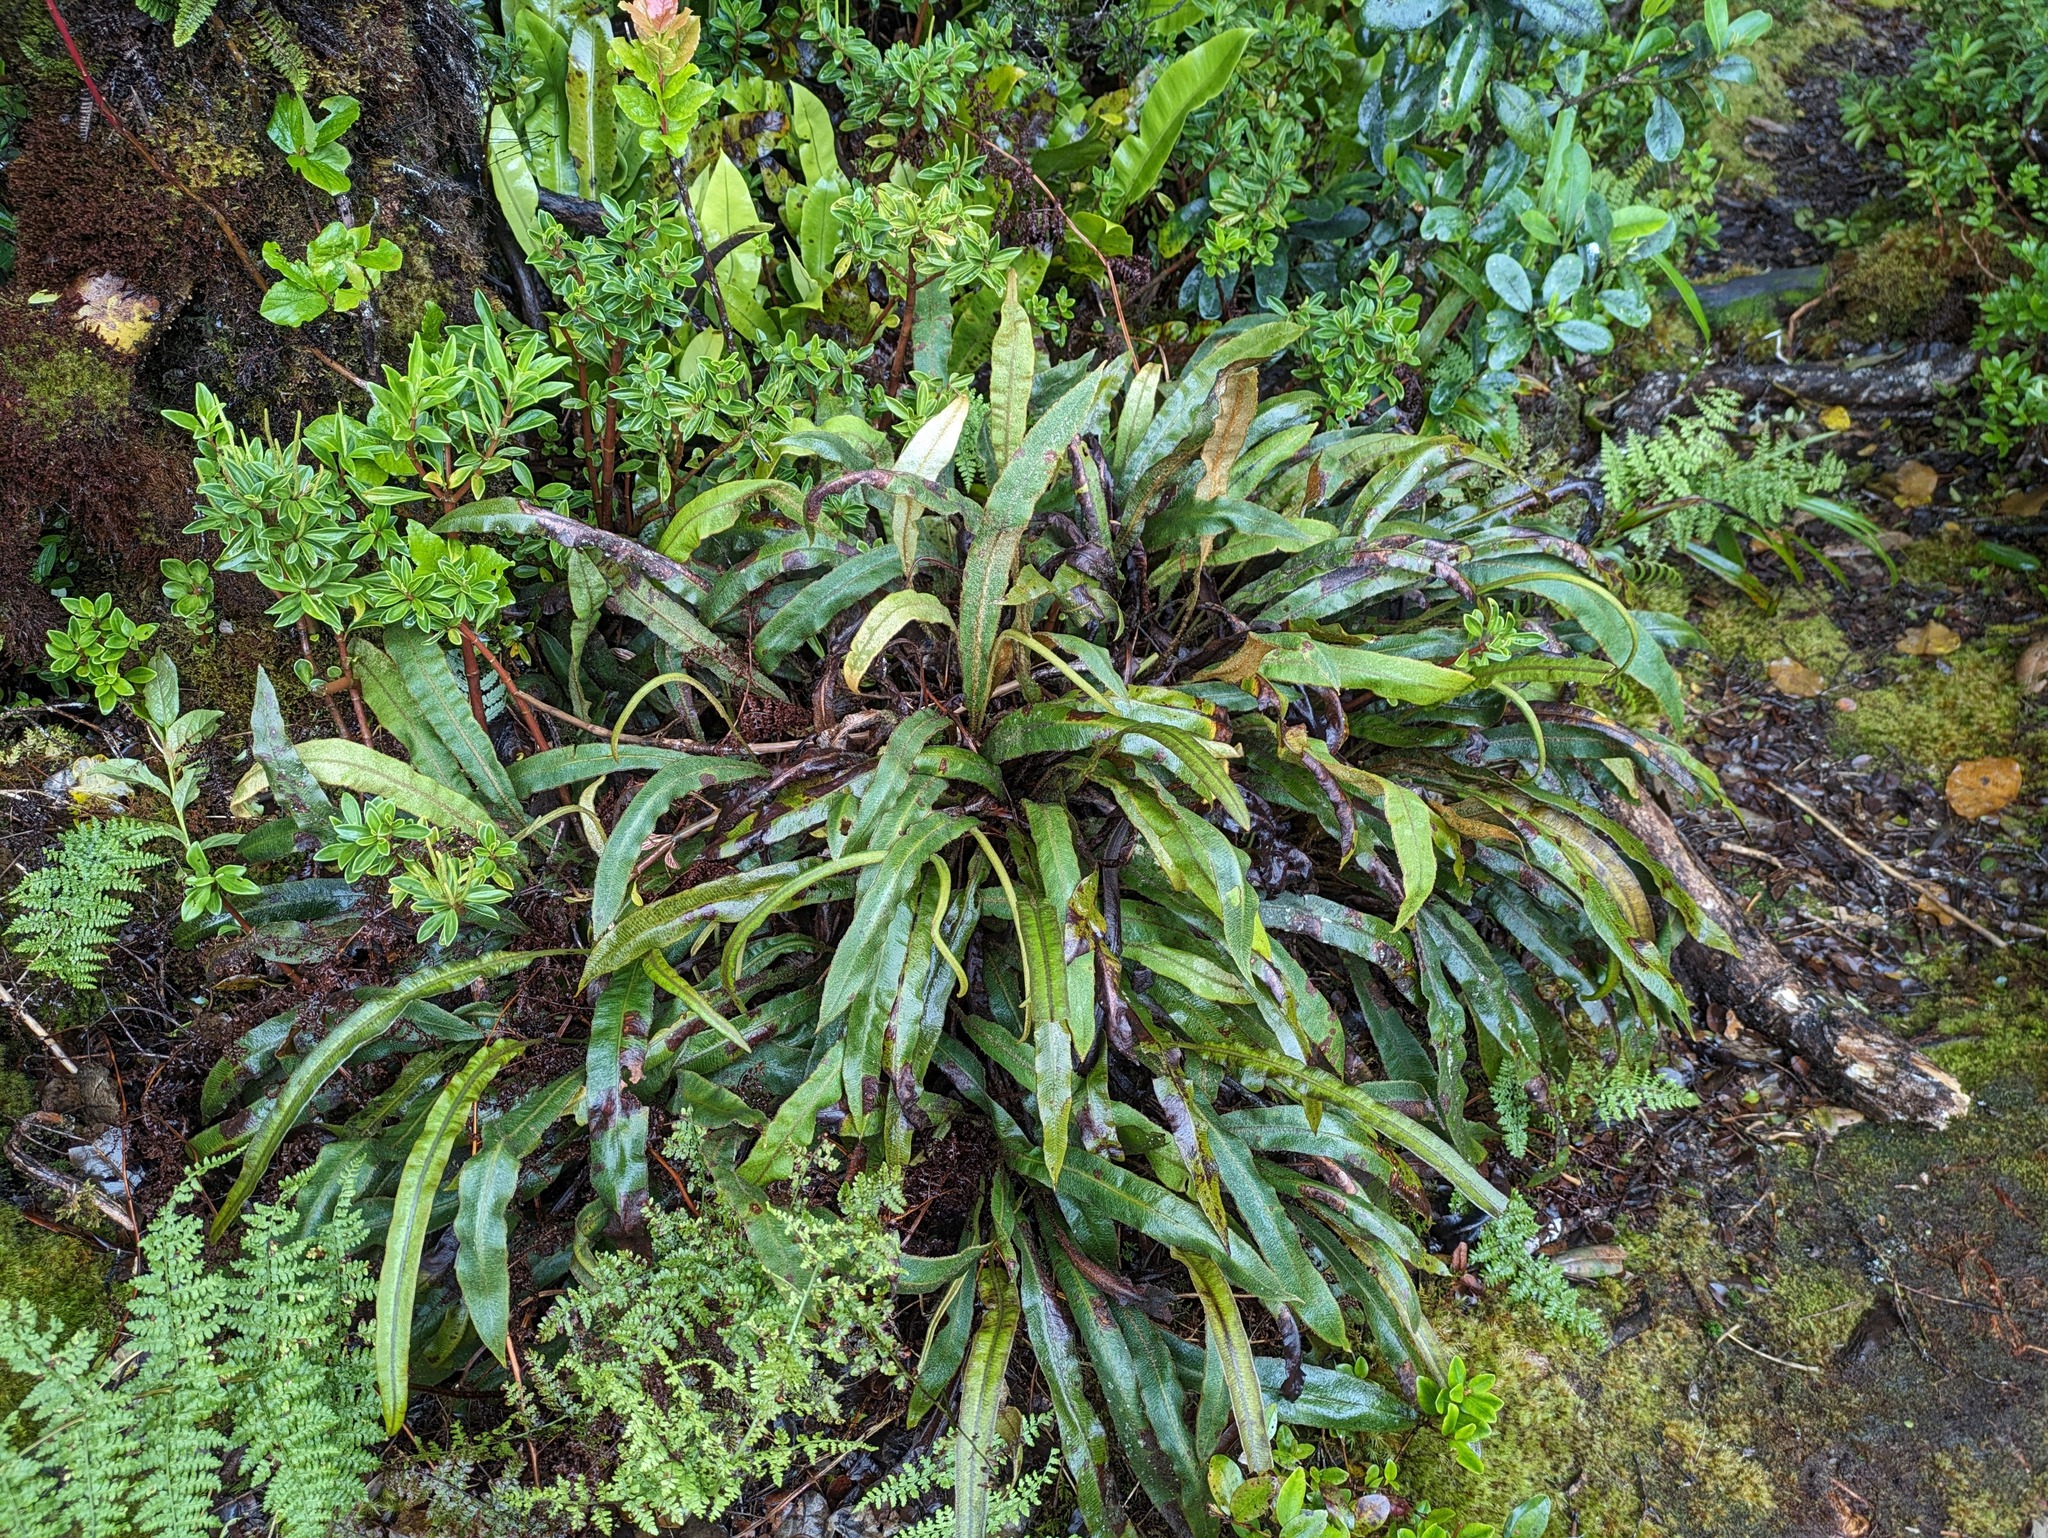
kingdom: Plantae
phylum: Tracheophyta
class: Polypodiopsida
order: Polypodiales
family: Dryopteridaceae
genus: Elaphoglossum
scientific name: Elaphoglossum paleaceum
